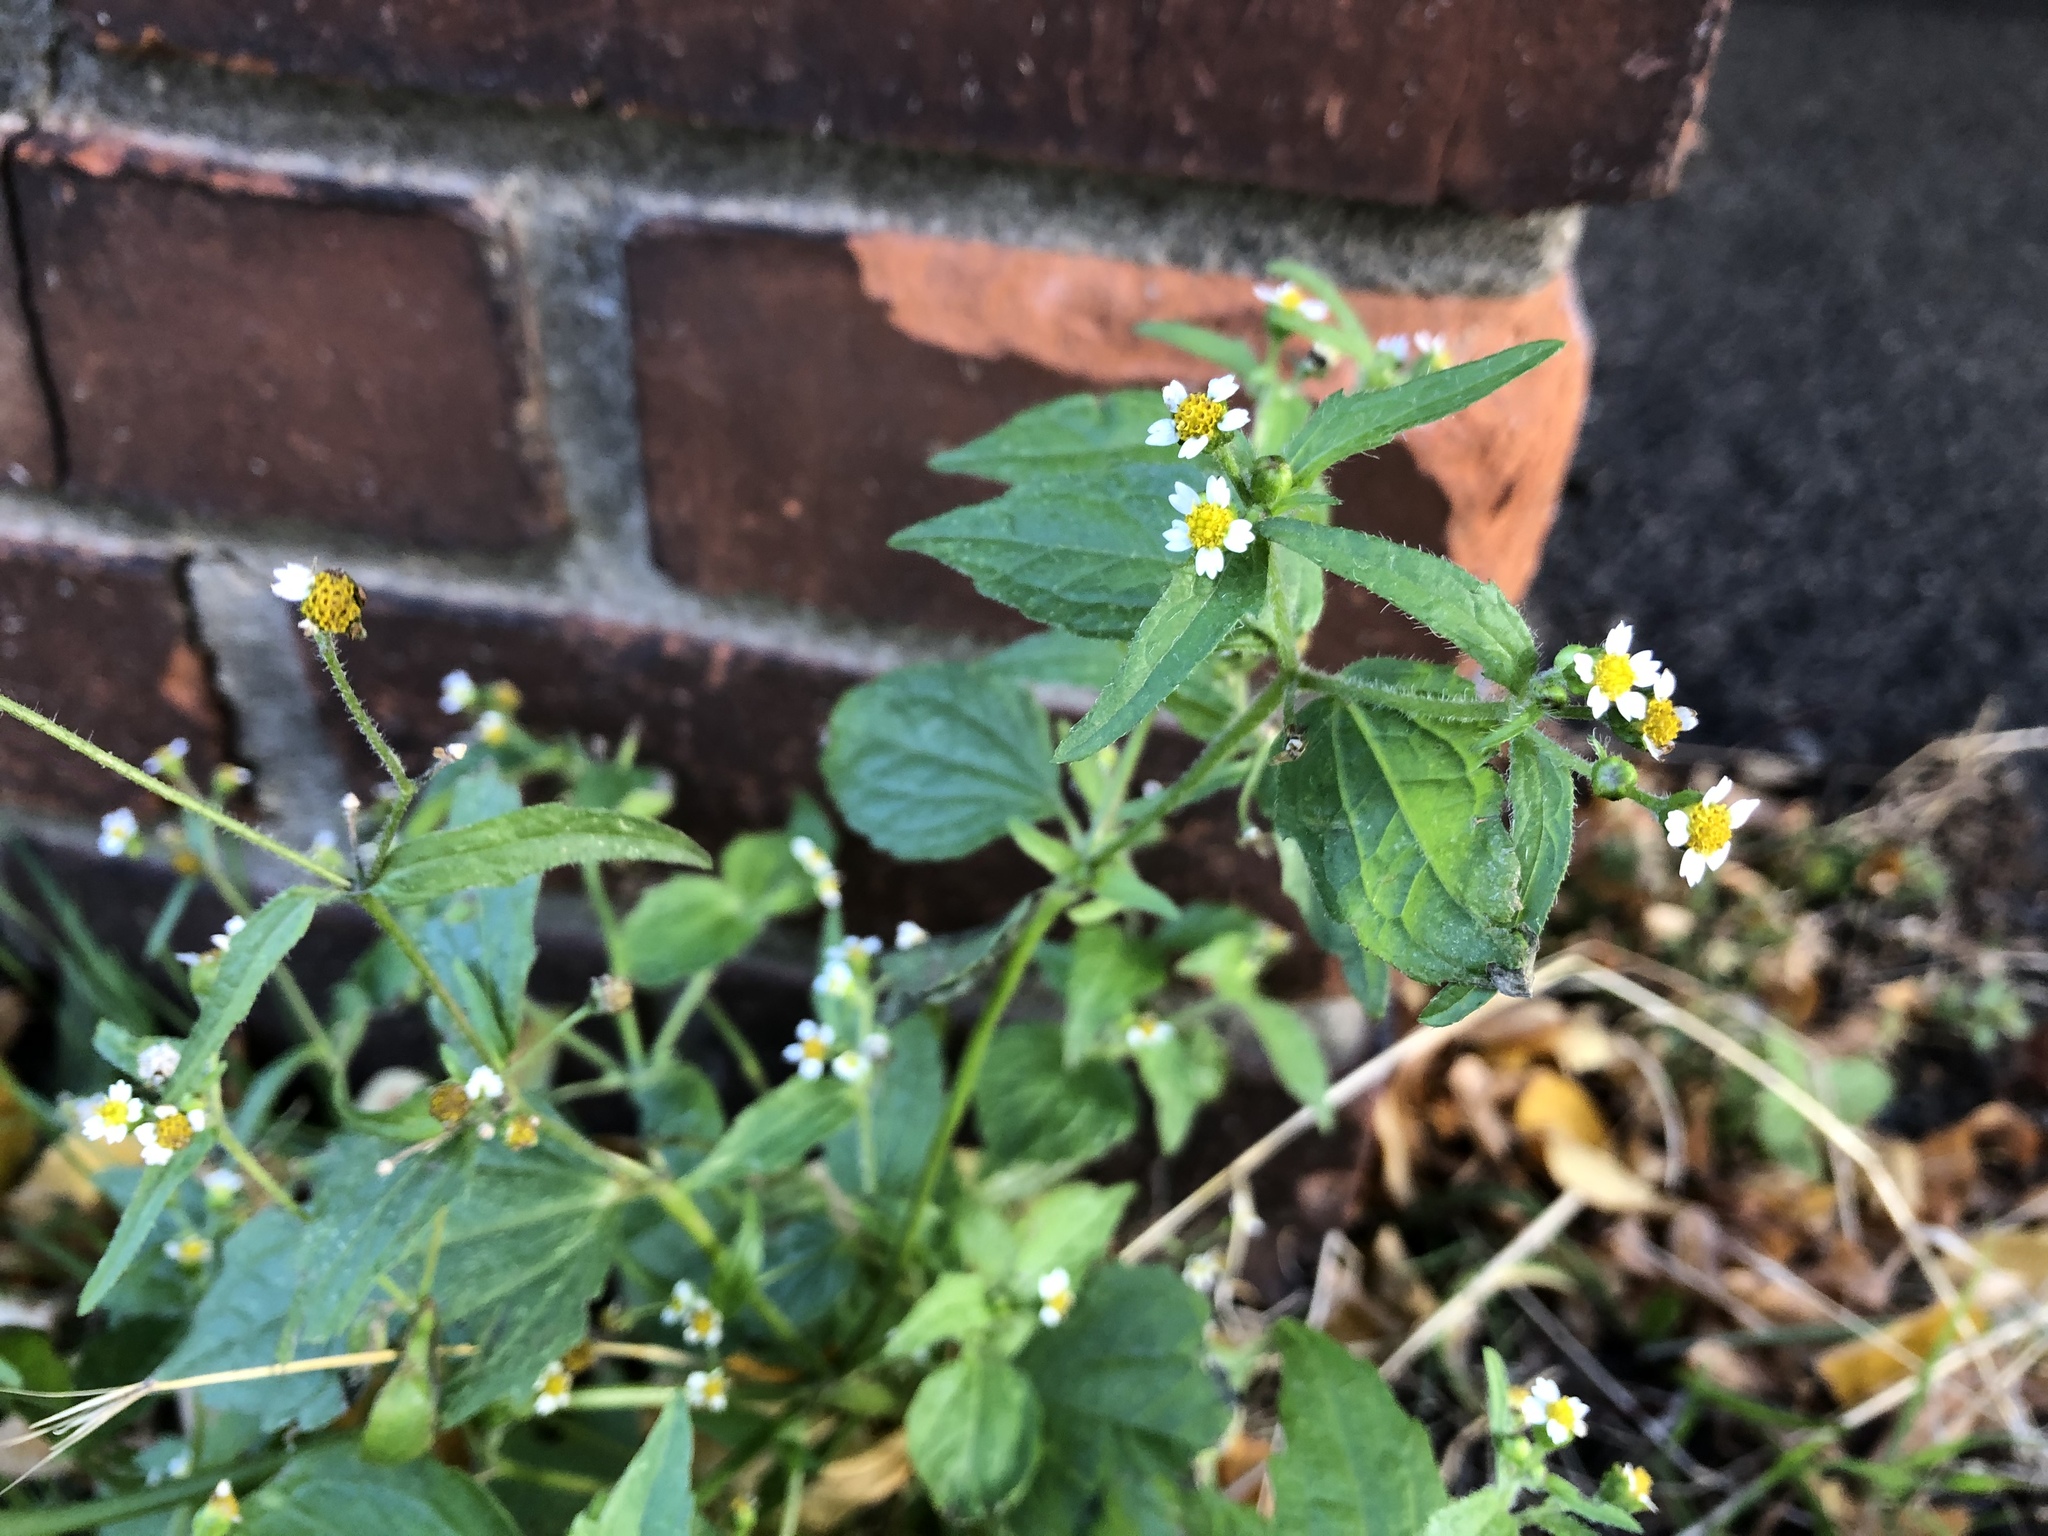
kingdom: Plantae
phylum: Tracheophyta
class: Magnoliopsida
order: Asterales
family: Asteraceae
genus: Galinsoga
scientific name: Galinsoga quadriradiata
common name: Shaggy soldier
